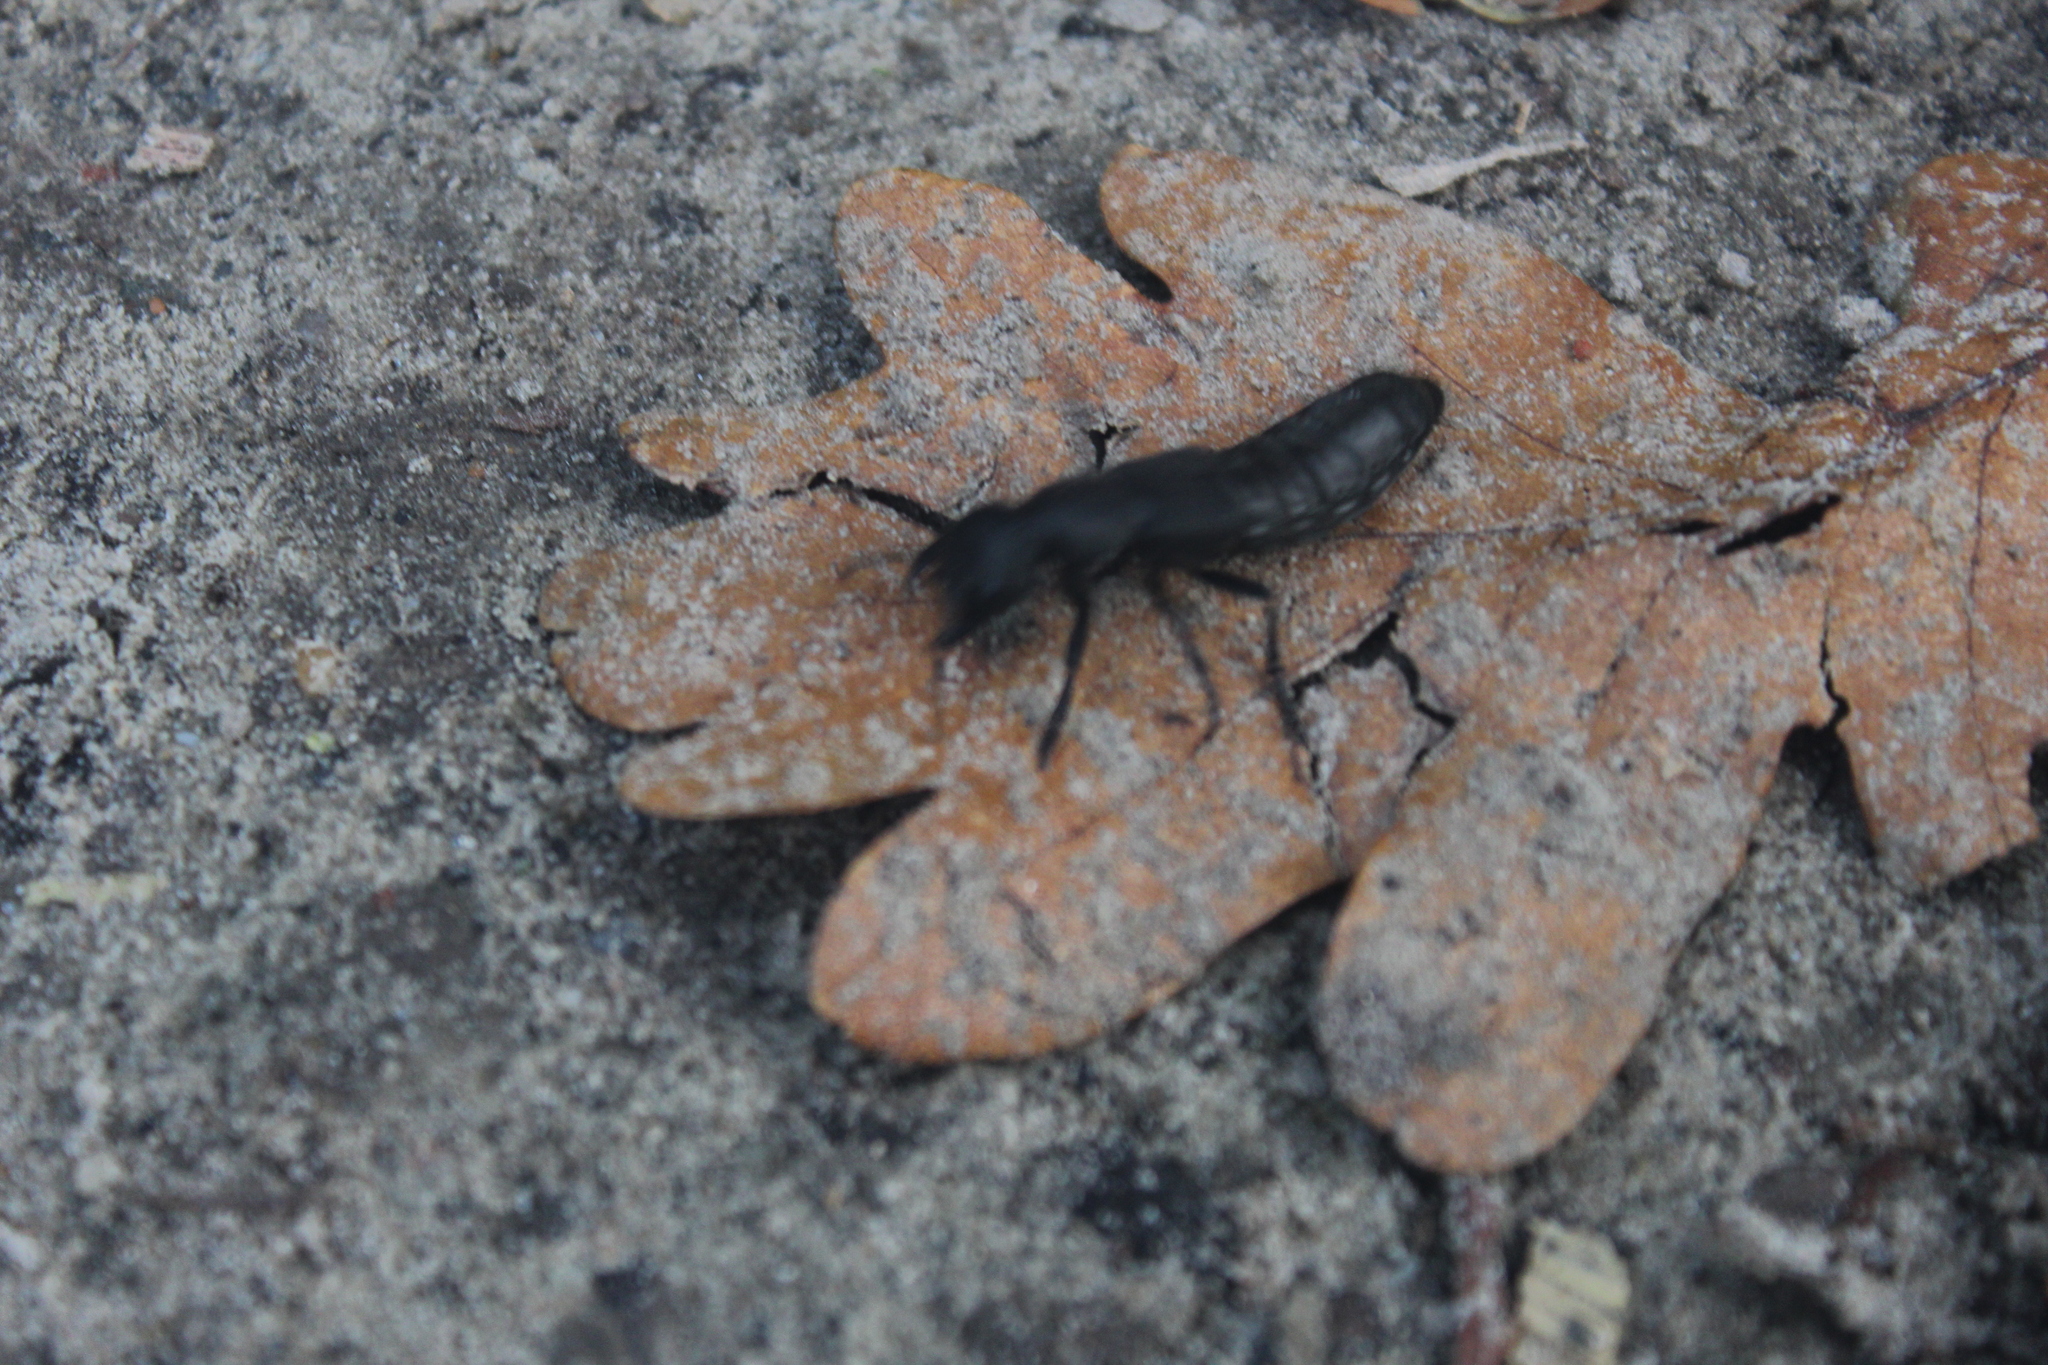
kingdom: Animalia
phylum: Arthropoda
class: Insecta
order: Coleoptera
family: Staphylinidae
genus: Ocypus
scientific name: Ocypus olens
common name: Devil's coach-horse
